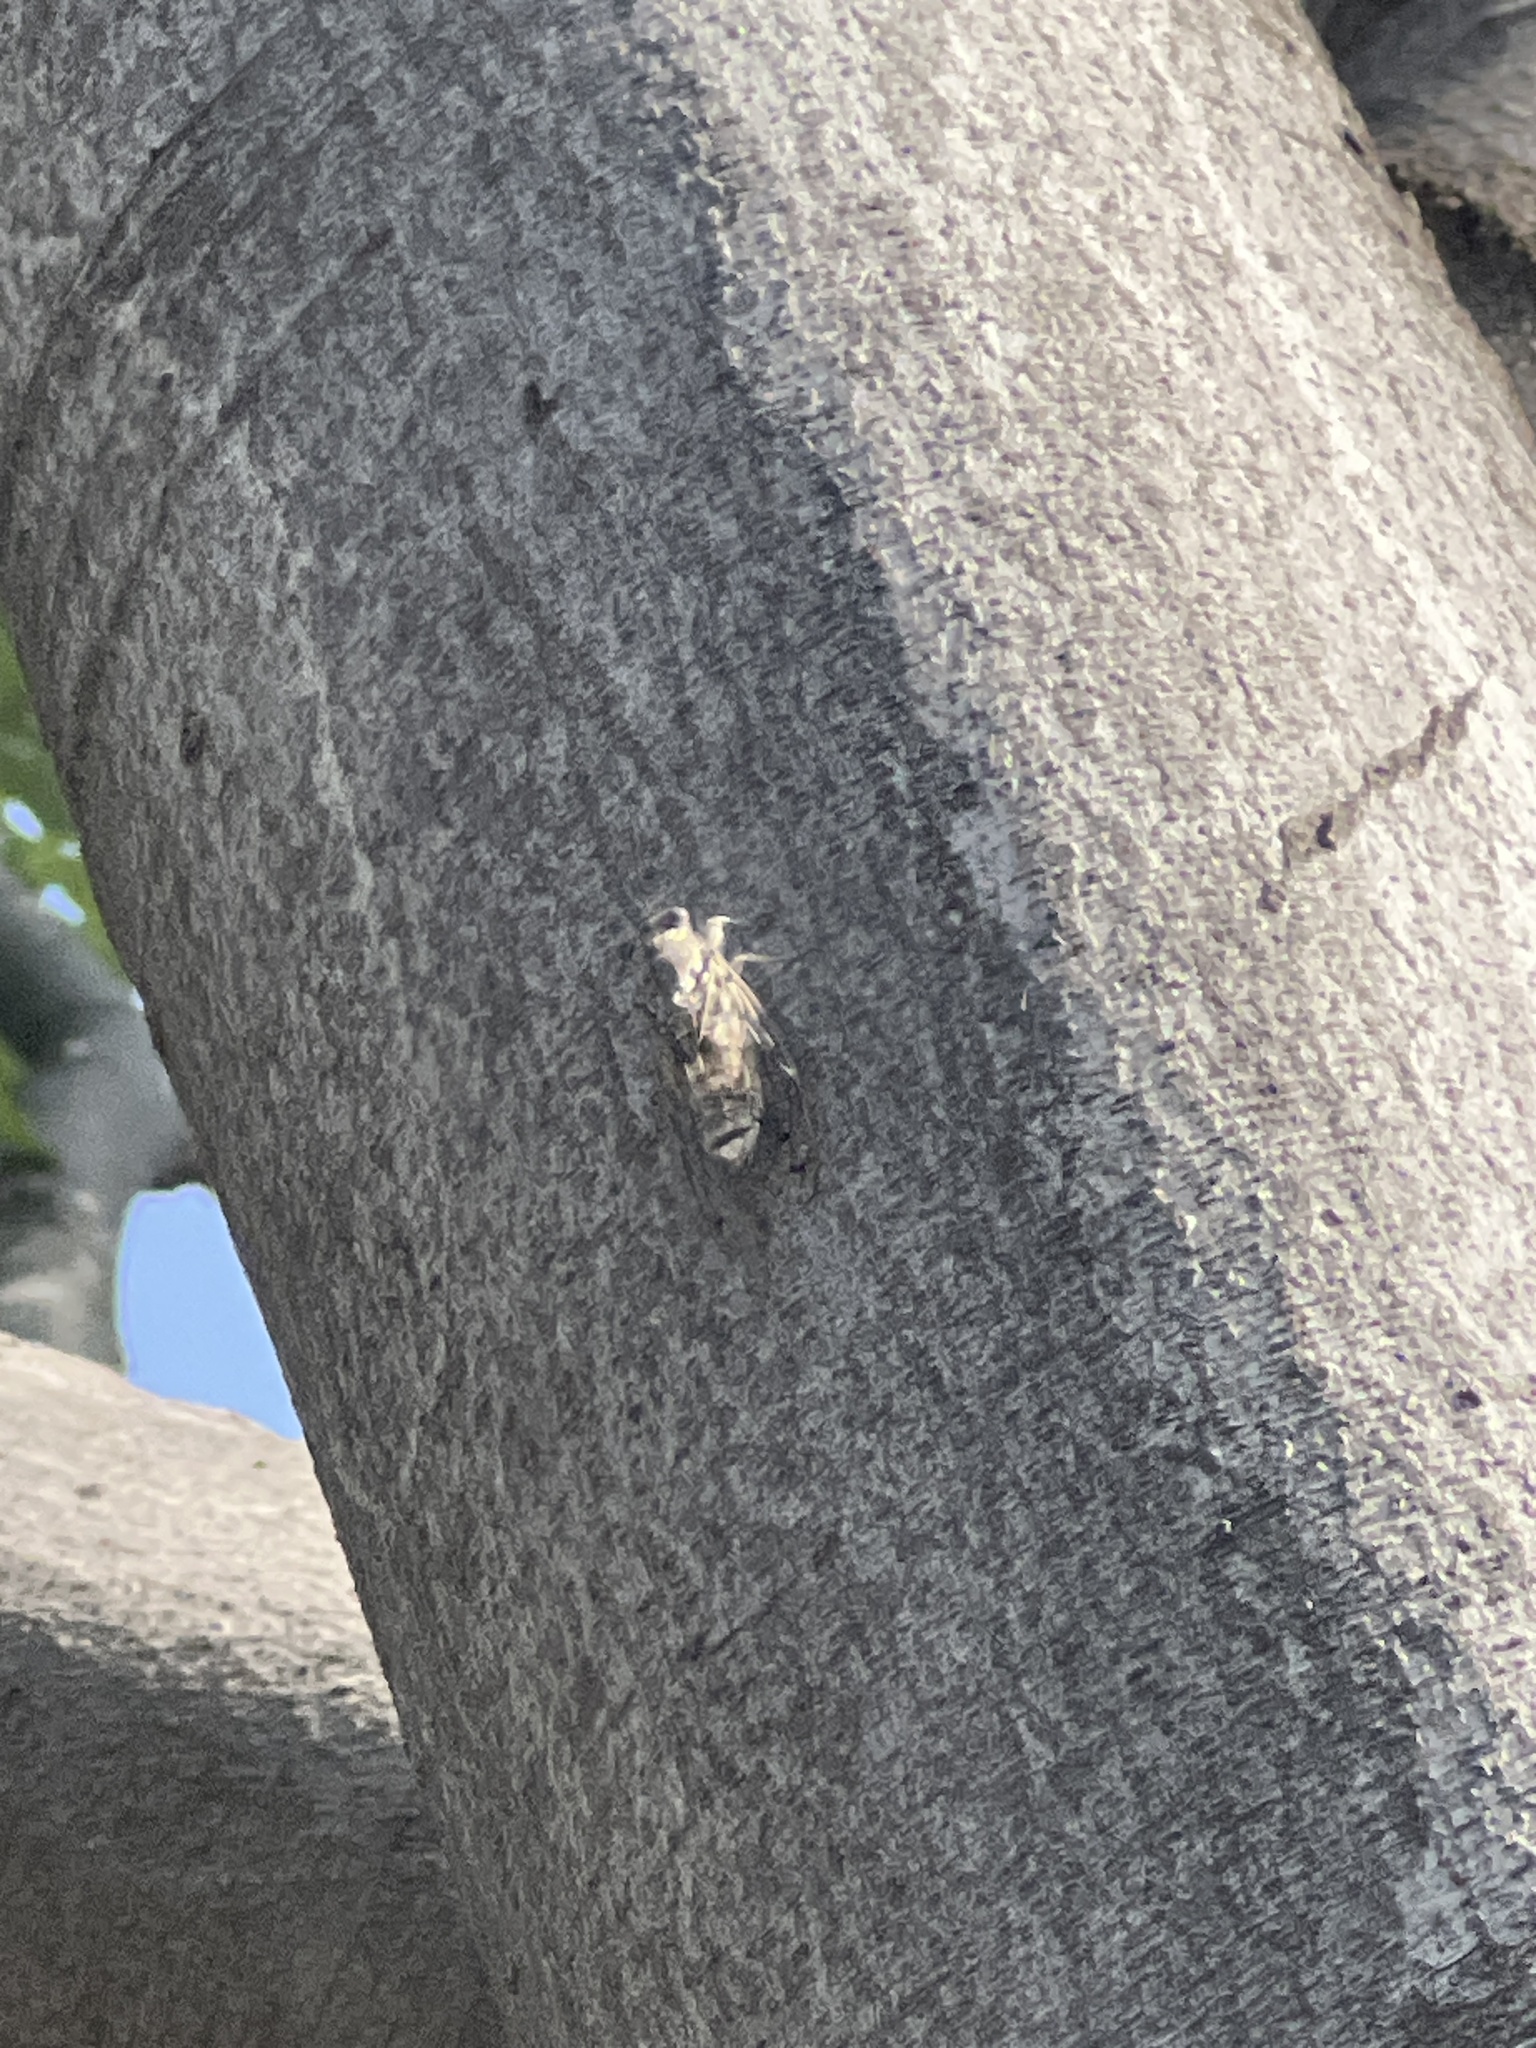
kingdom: Animalia
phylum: Arthropoda
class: Insecta
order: Hemiptera
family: Cicadidae
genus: Cicada
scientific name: Cicada orni
